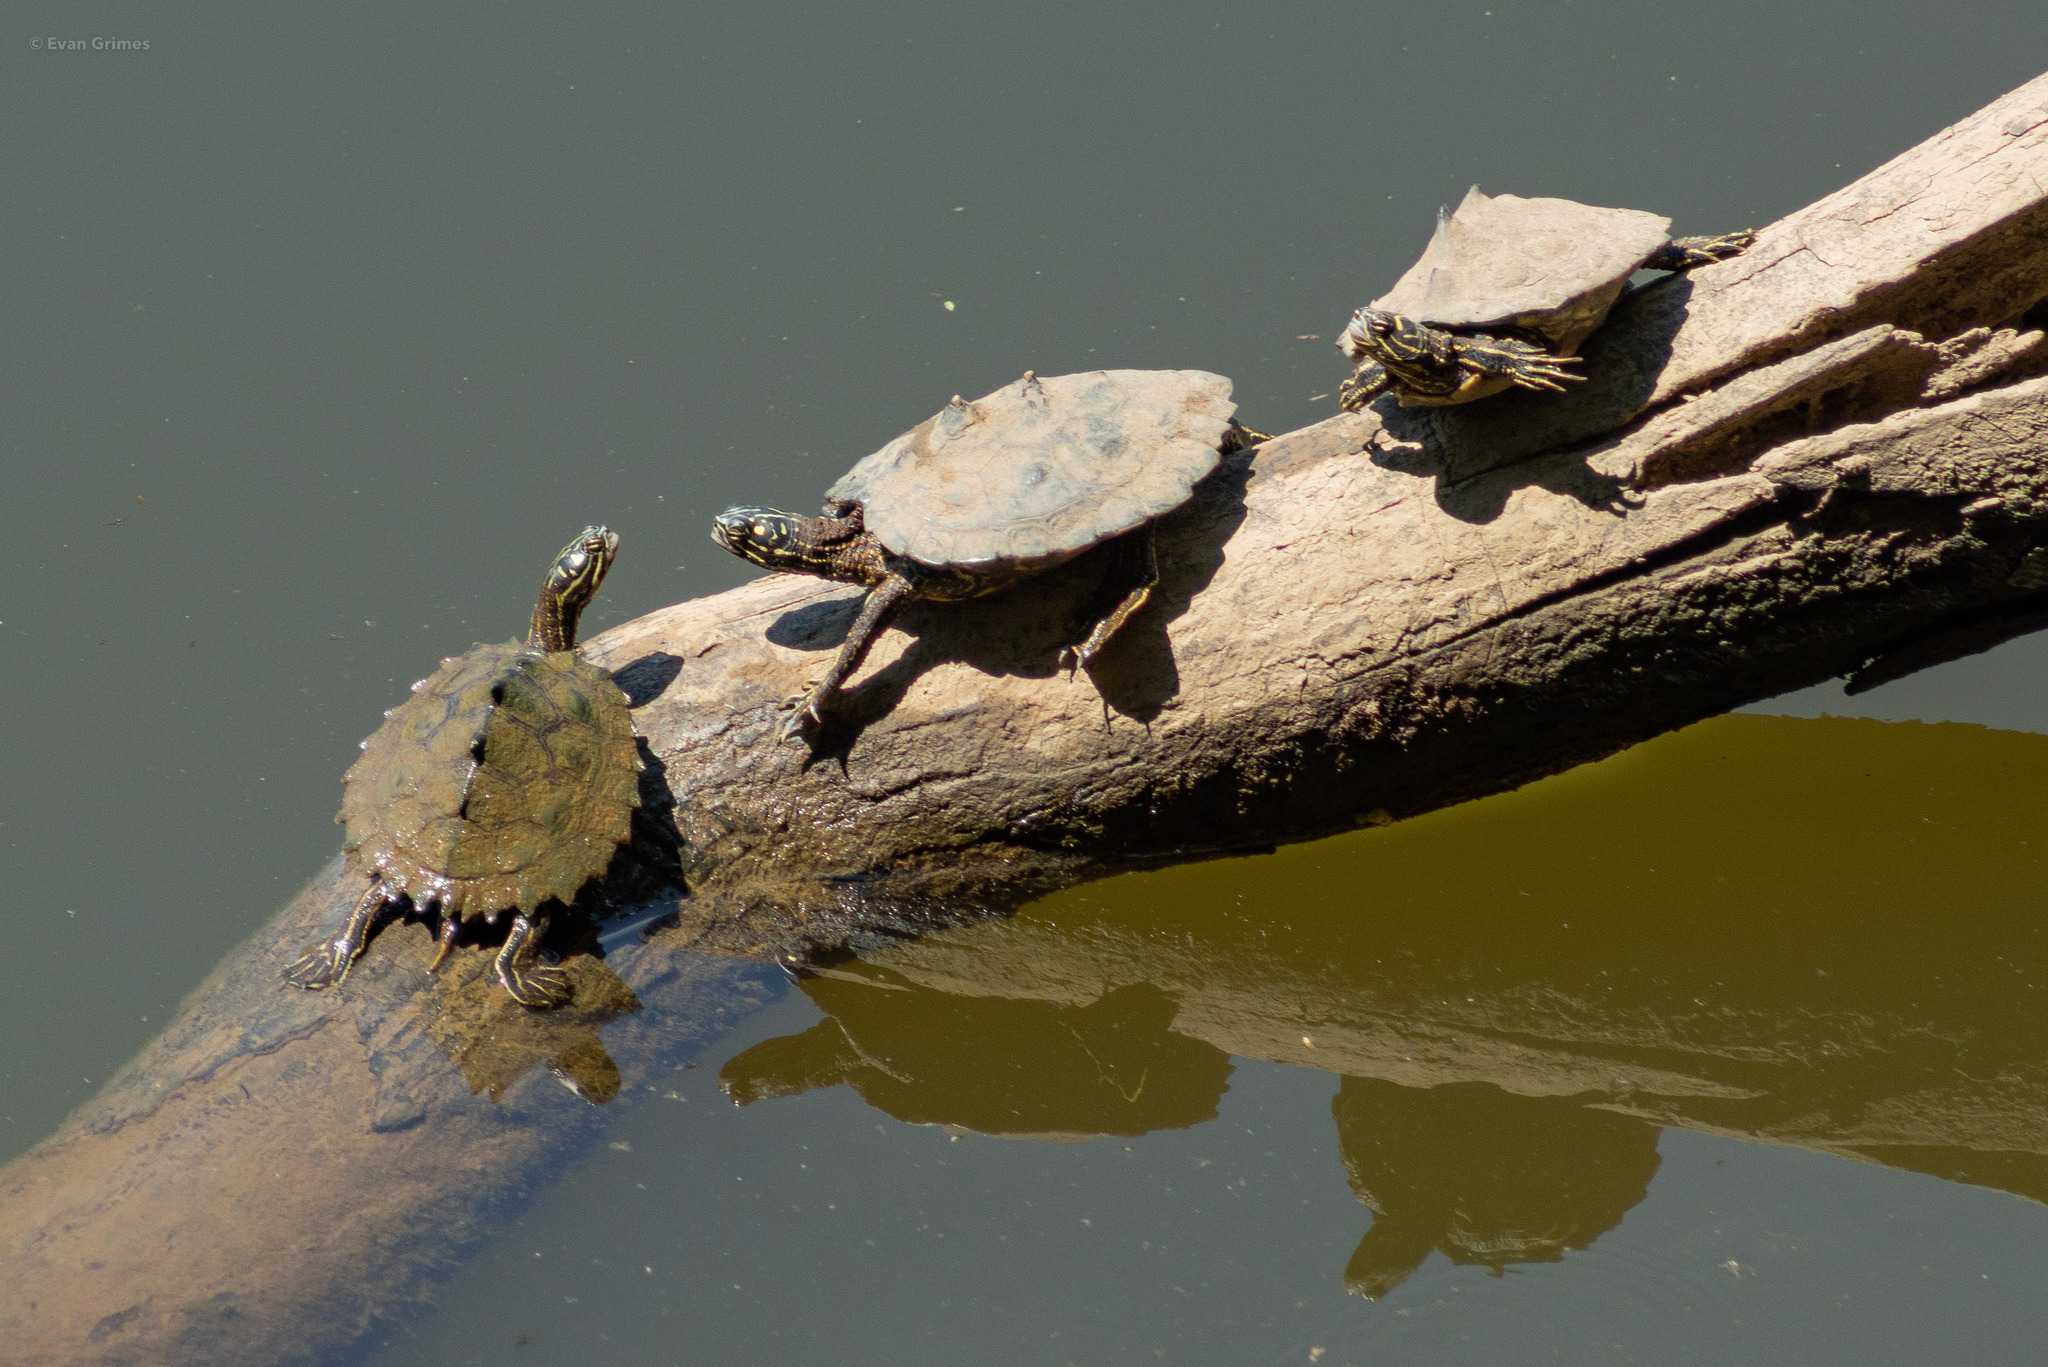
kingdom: Animalia
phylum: Chordata
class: Testudines
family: Emydidae
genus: Graptemys
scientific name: Graptemys oculifera
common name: Ringed map turtle
